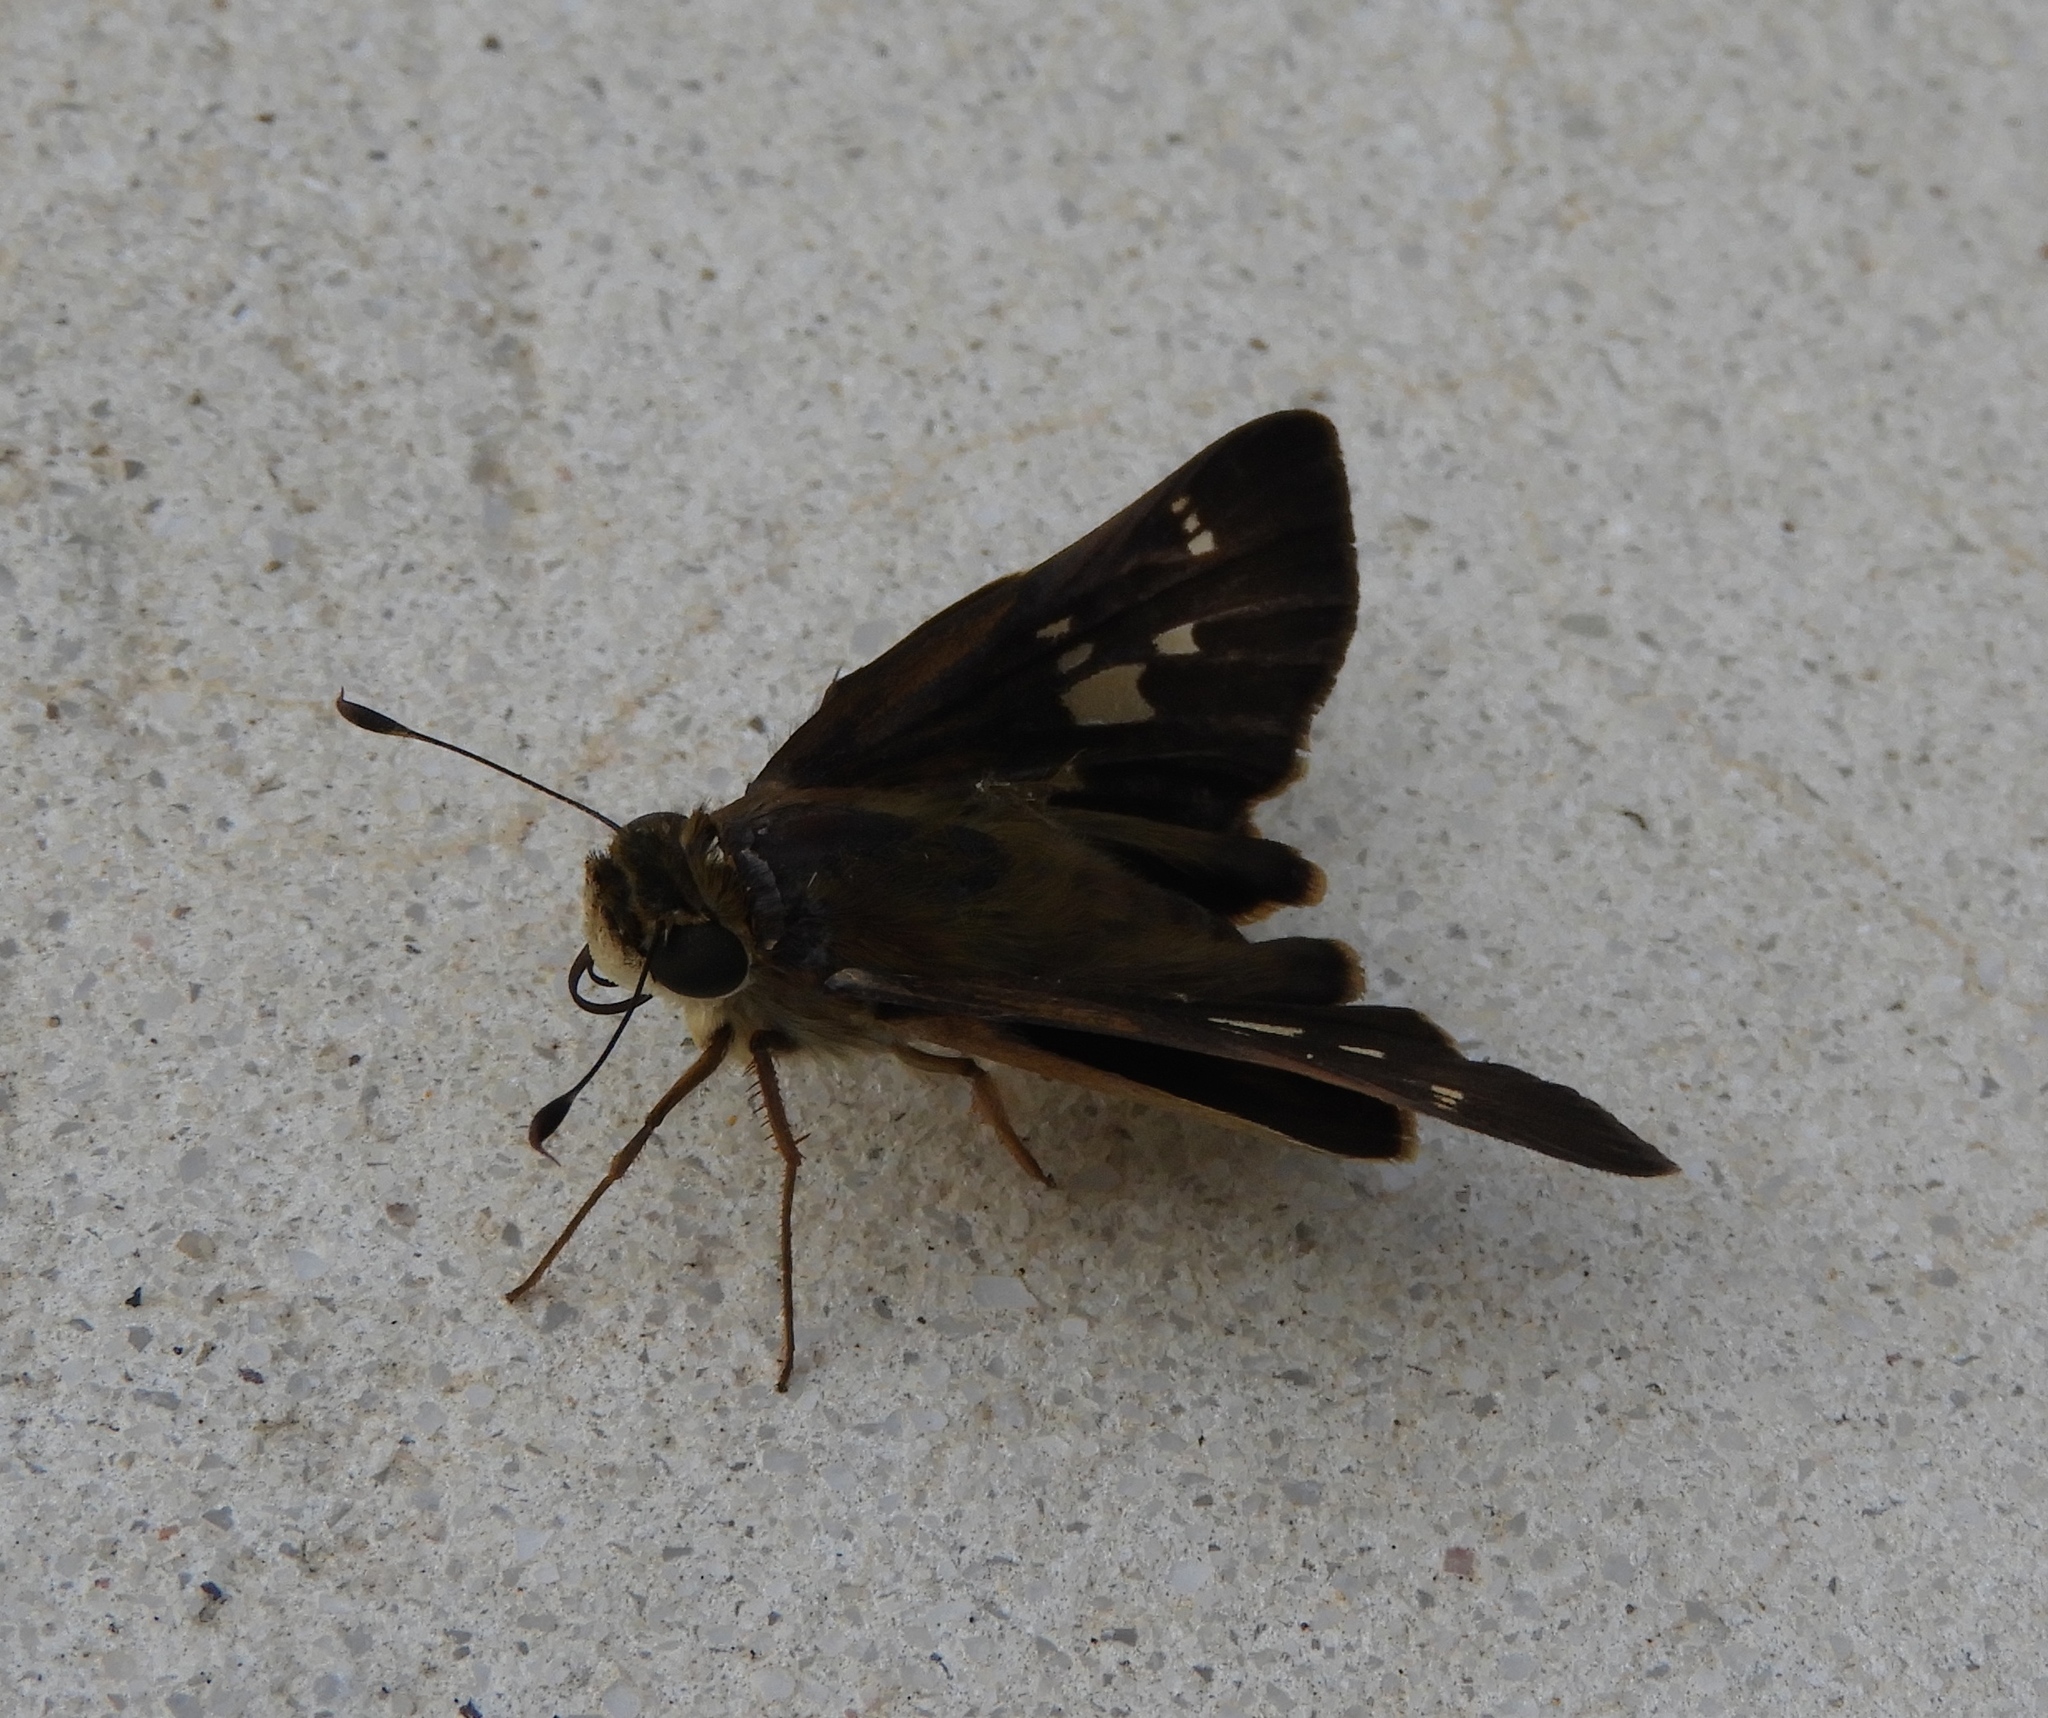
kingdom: Animalia
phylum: Arthropoda
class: Insecta
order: Lepidoptera
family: Hesperiidae
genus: Nyctelius
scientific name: Nyctelius nyctelius
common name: Violet-banded skipper
